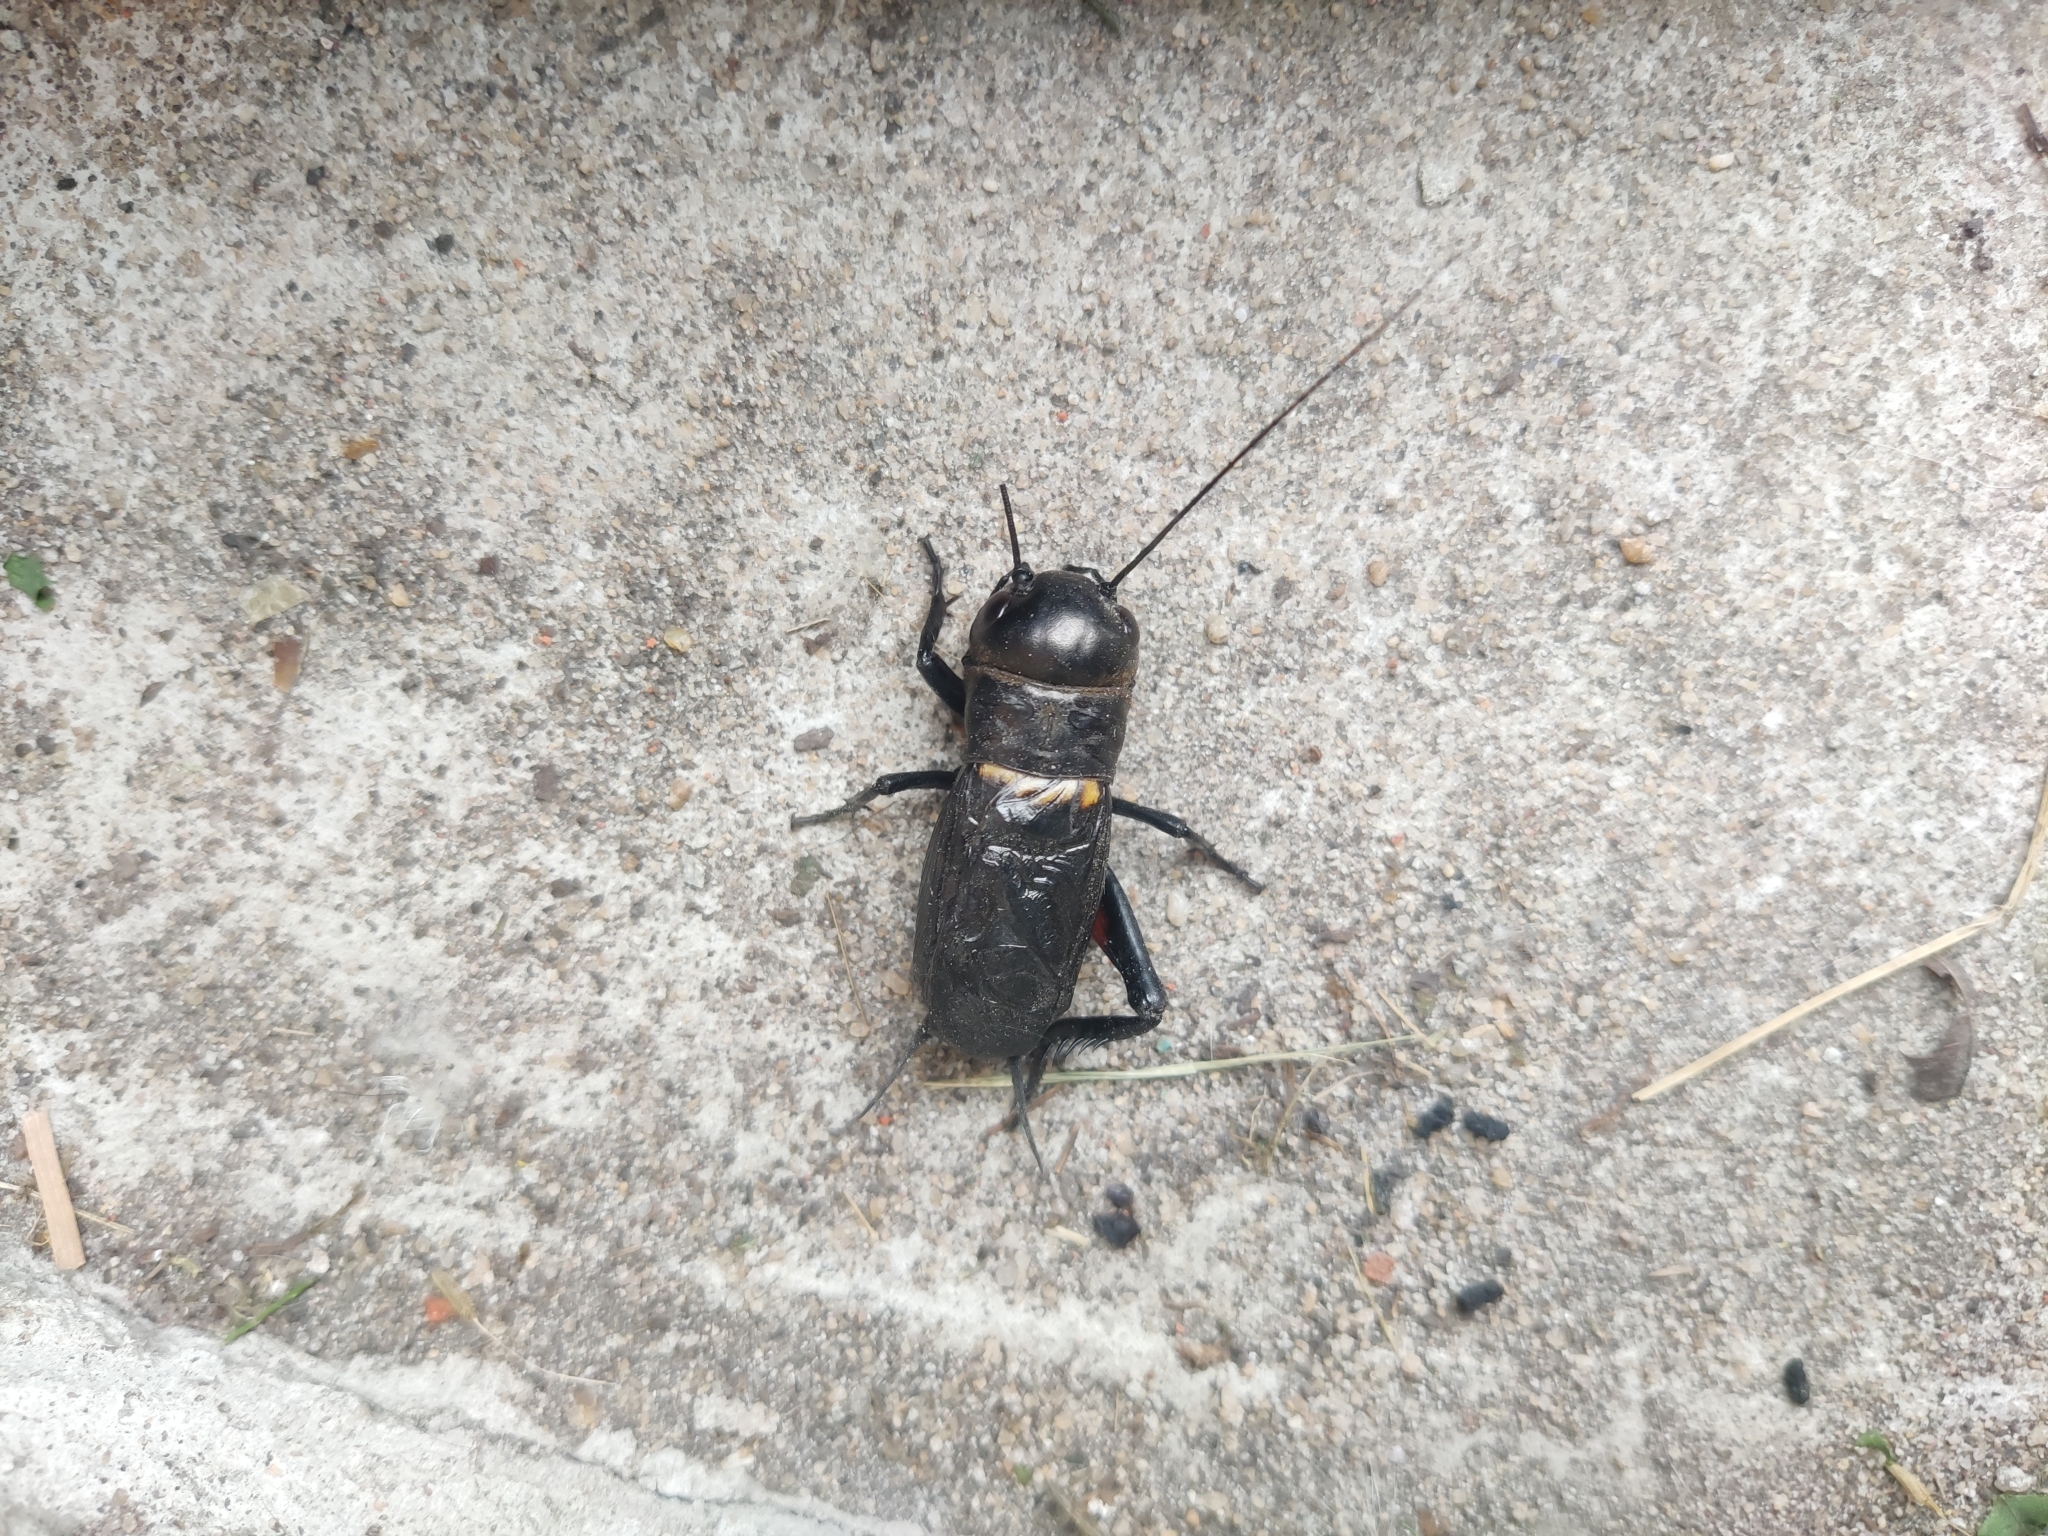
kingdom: Animalia
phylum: Arthropoda
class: Insecta
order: Orthoptera
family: Gryllidae
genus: Gryllus
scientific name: Gryllus campestris
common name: Field cricket
